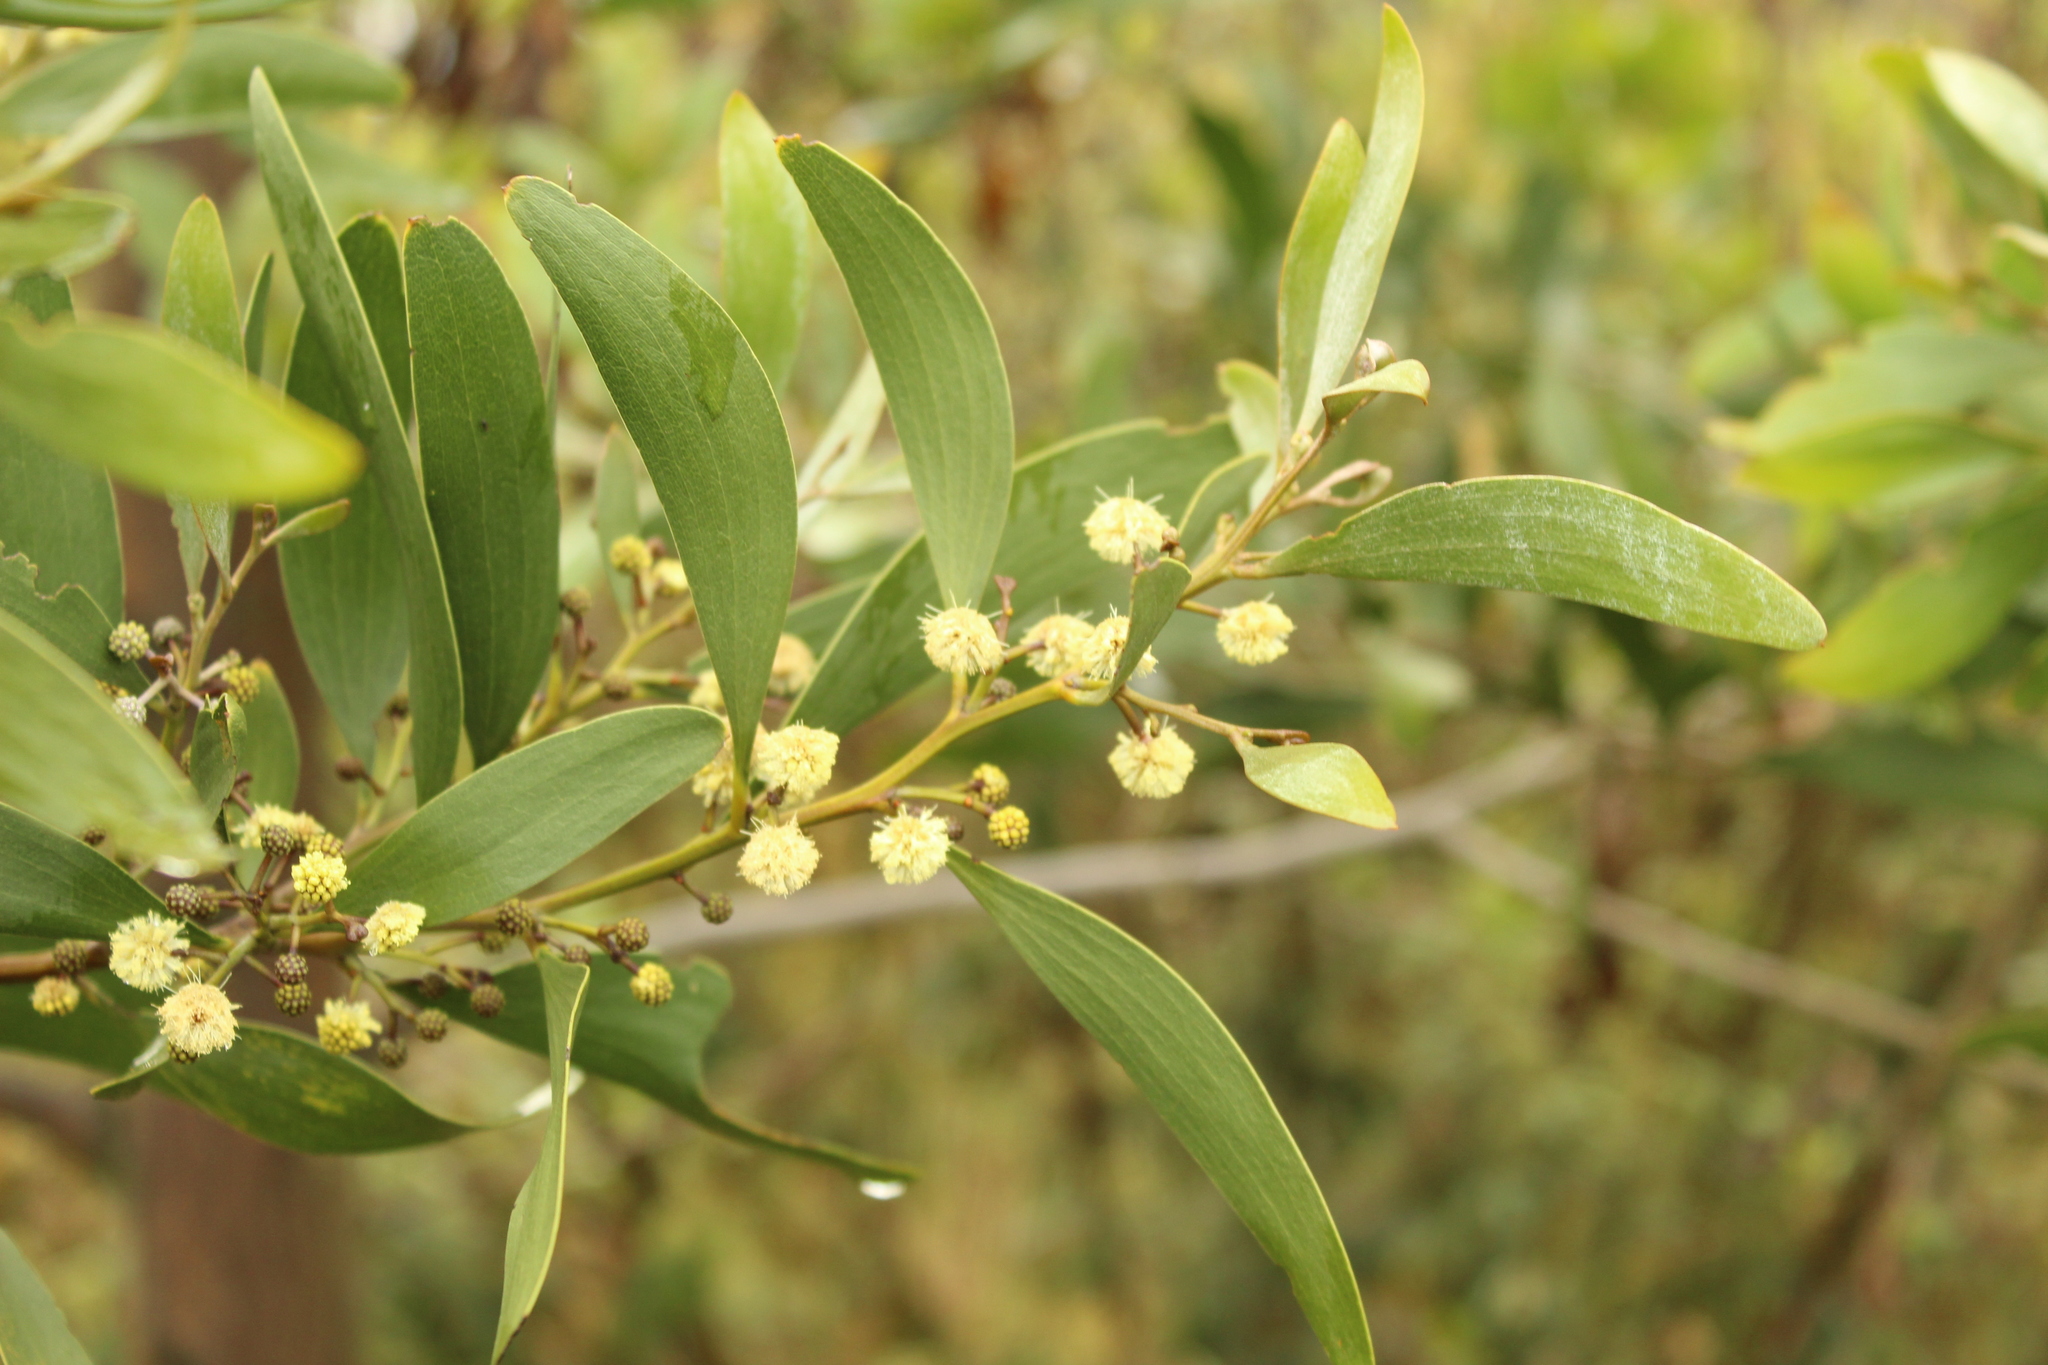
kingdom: Plantae
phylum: Tracheophyta
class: Magnoliopsida
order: Fabales
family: Fabaceae
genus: Acacia
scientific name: Acacia melanoxylon
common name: Blackwood
